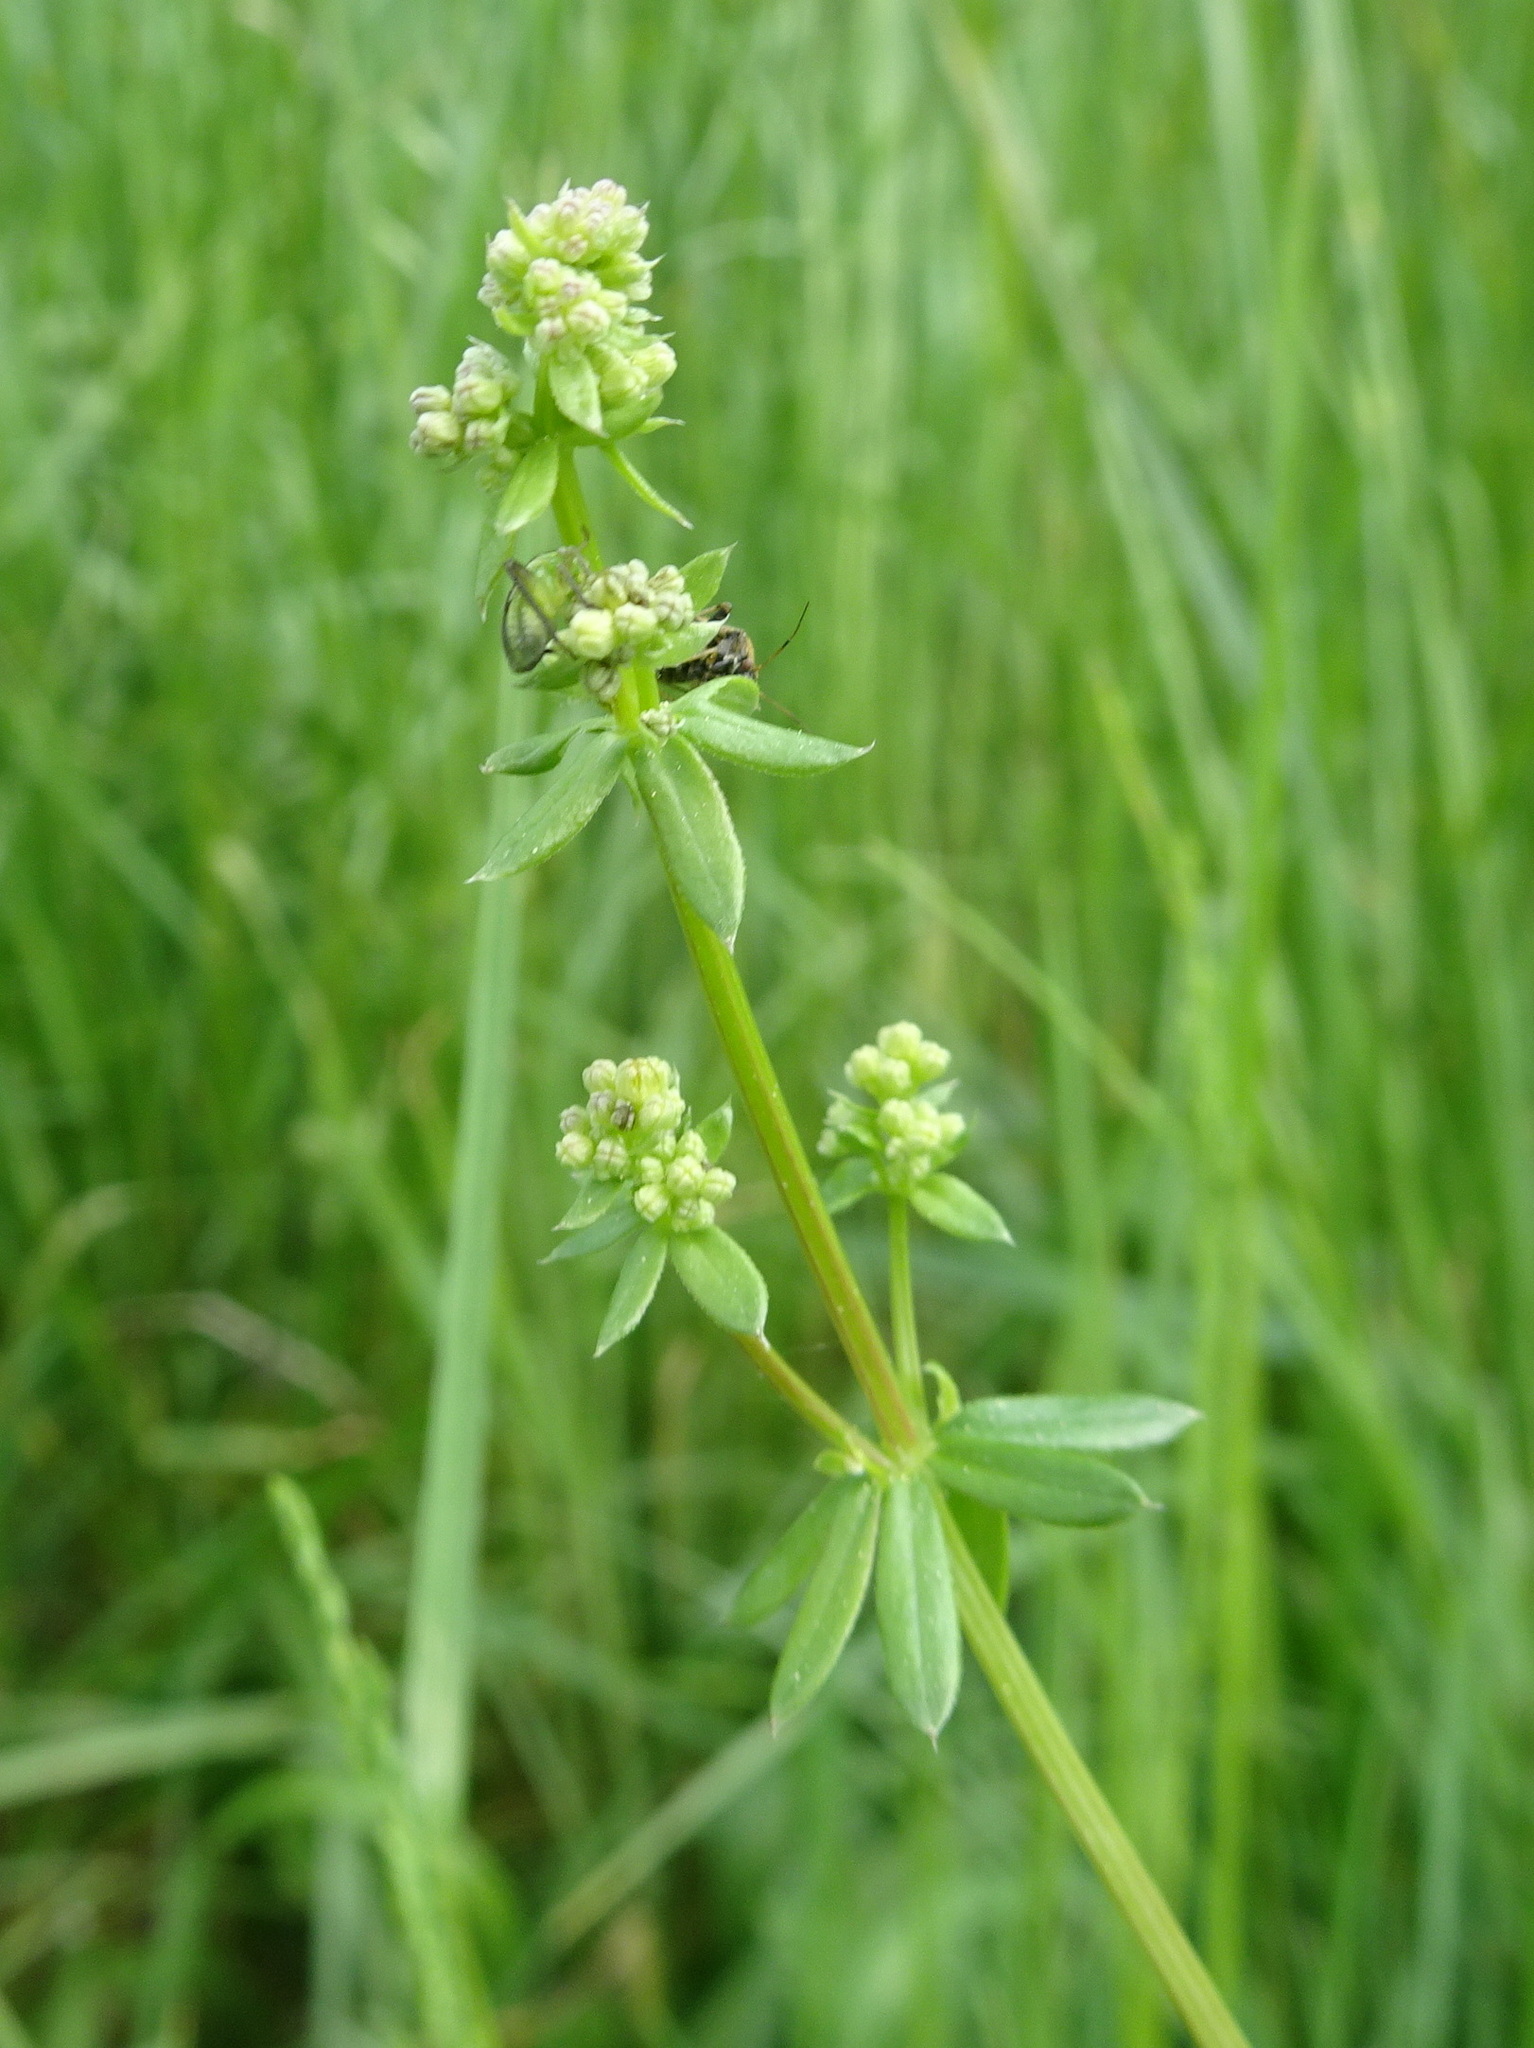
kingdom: Plantae
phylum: Tracheophyta
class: Magnoliopsida
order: Gentianales
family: Rubiaceae
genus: Galium
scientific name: Galium album
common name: White bedstraw
